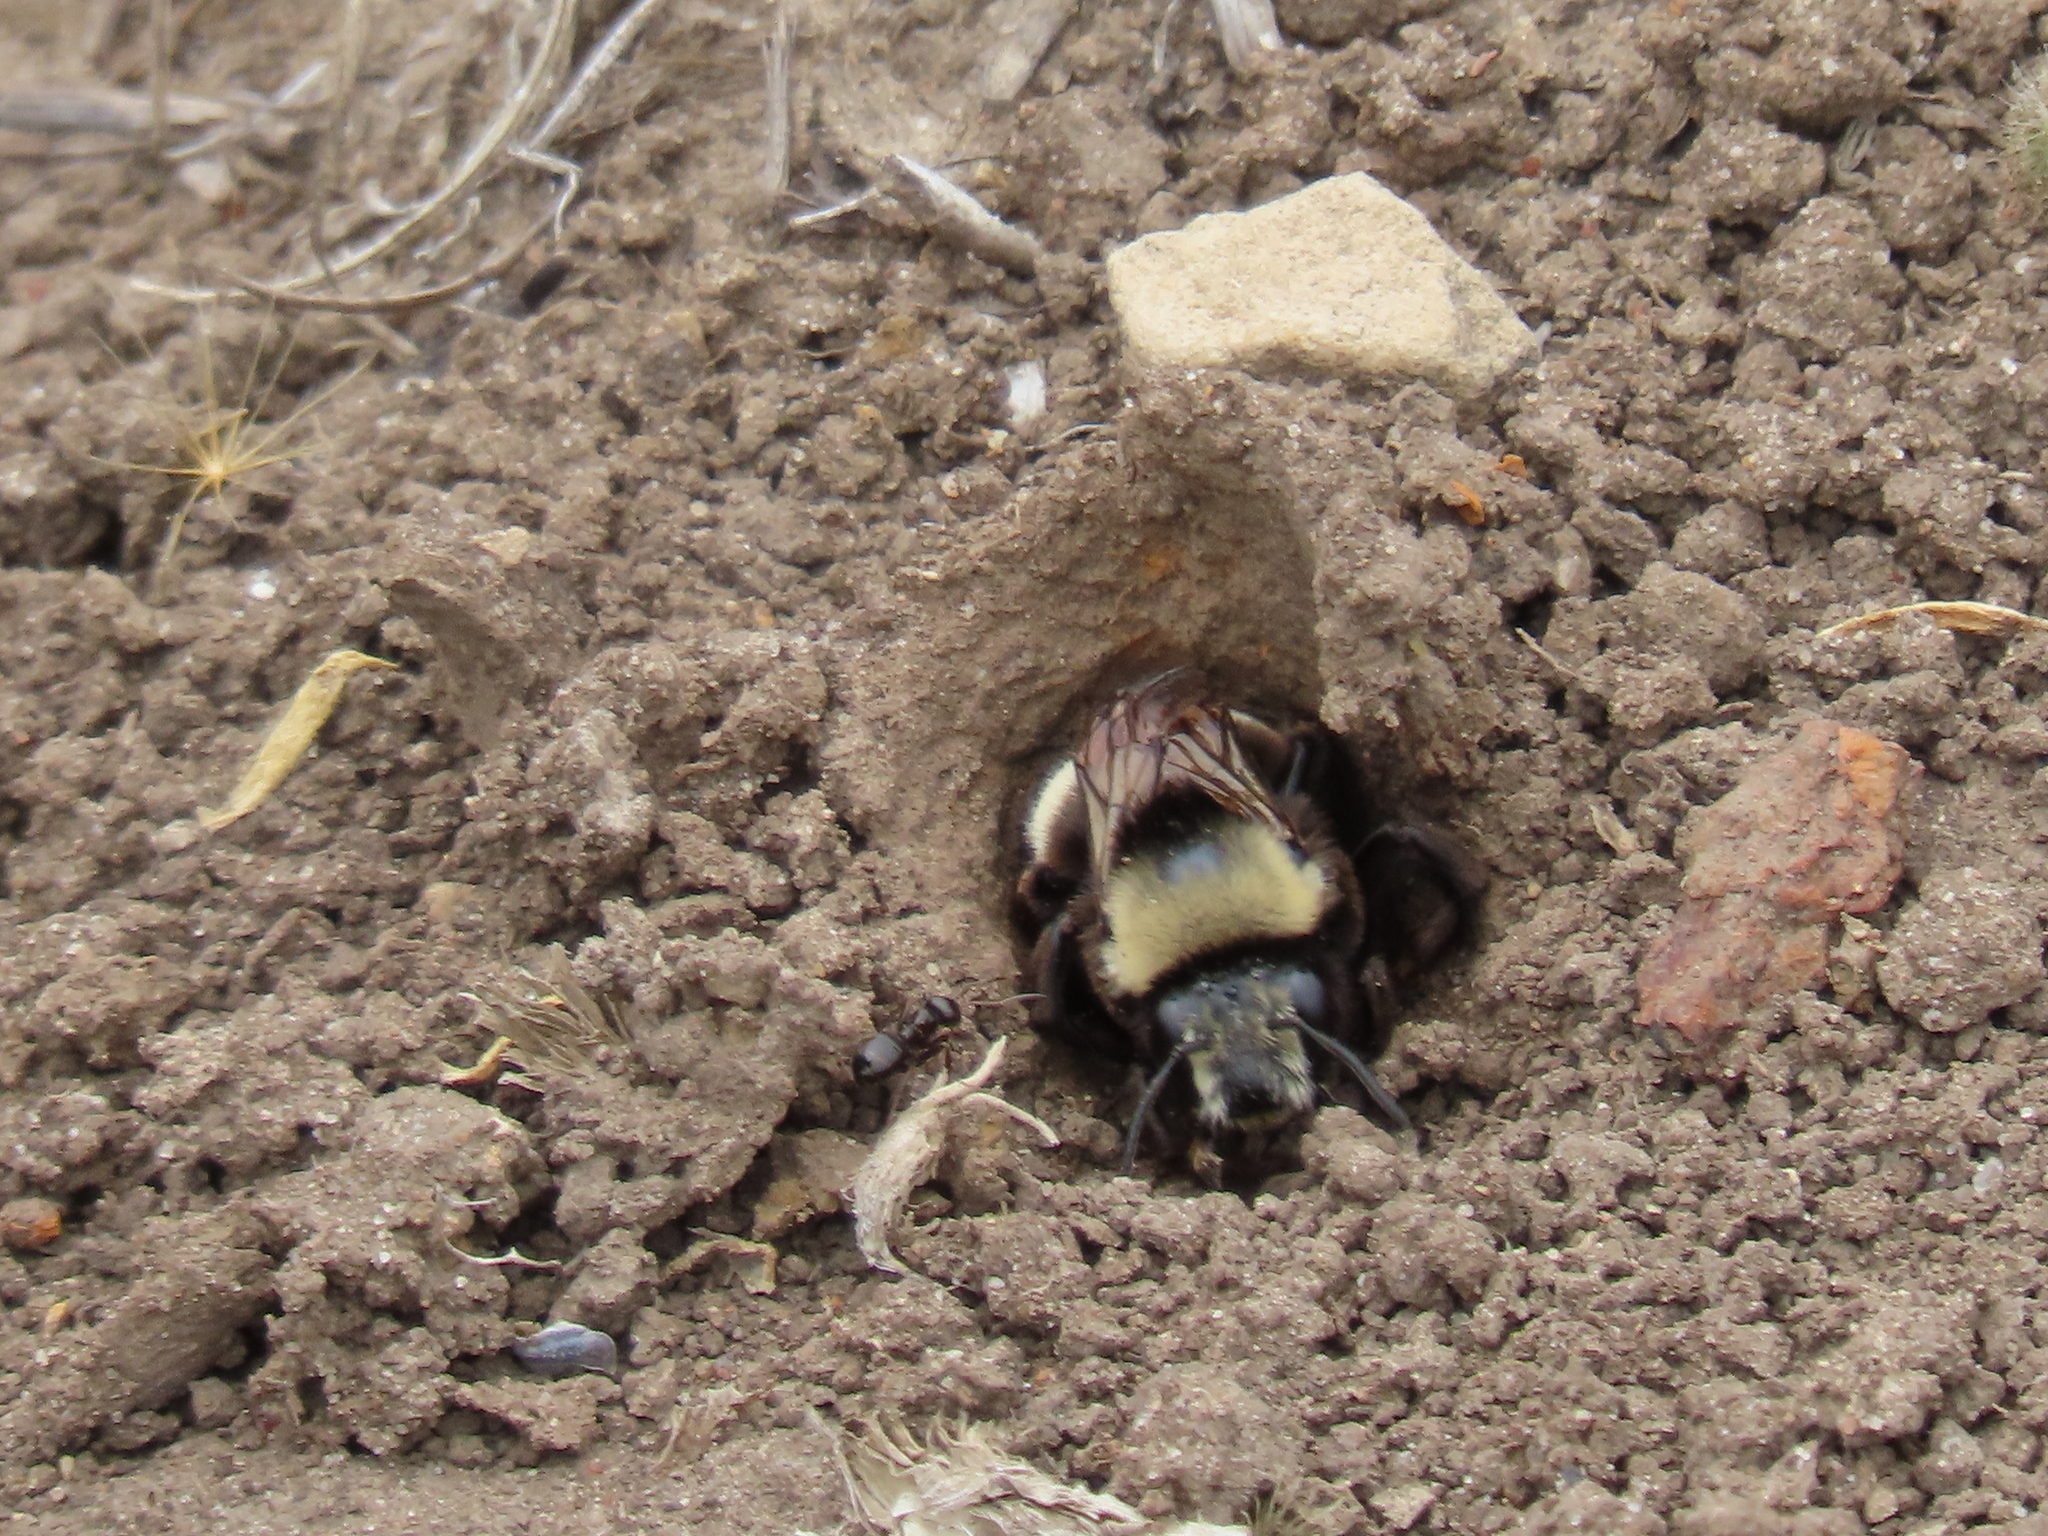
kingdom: Animalia
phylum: Arthropoda
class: Insecta
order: Hymenoptera
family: Apidae
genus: Anthophora
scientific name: Anthophora bomboides
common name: Bumble-bee-mimic digger bee
